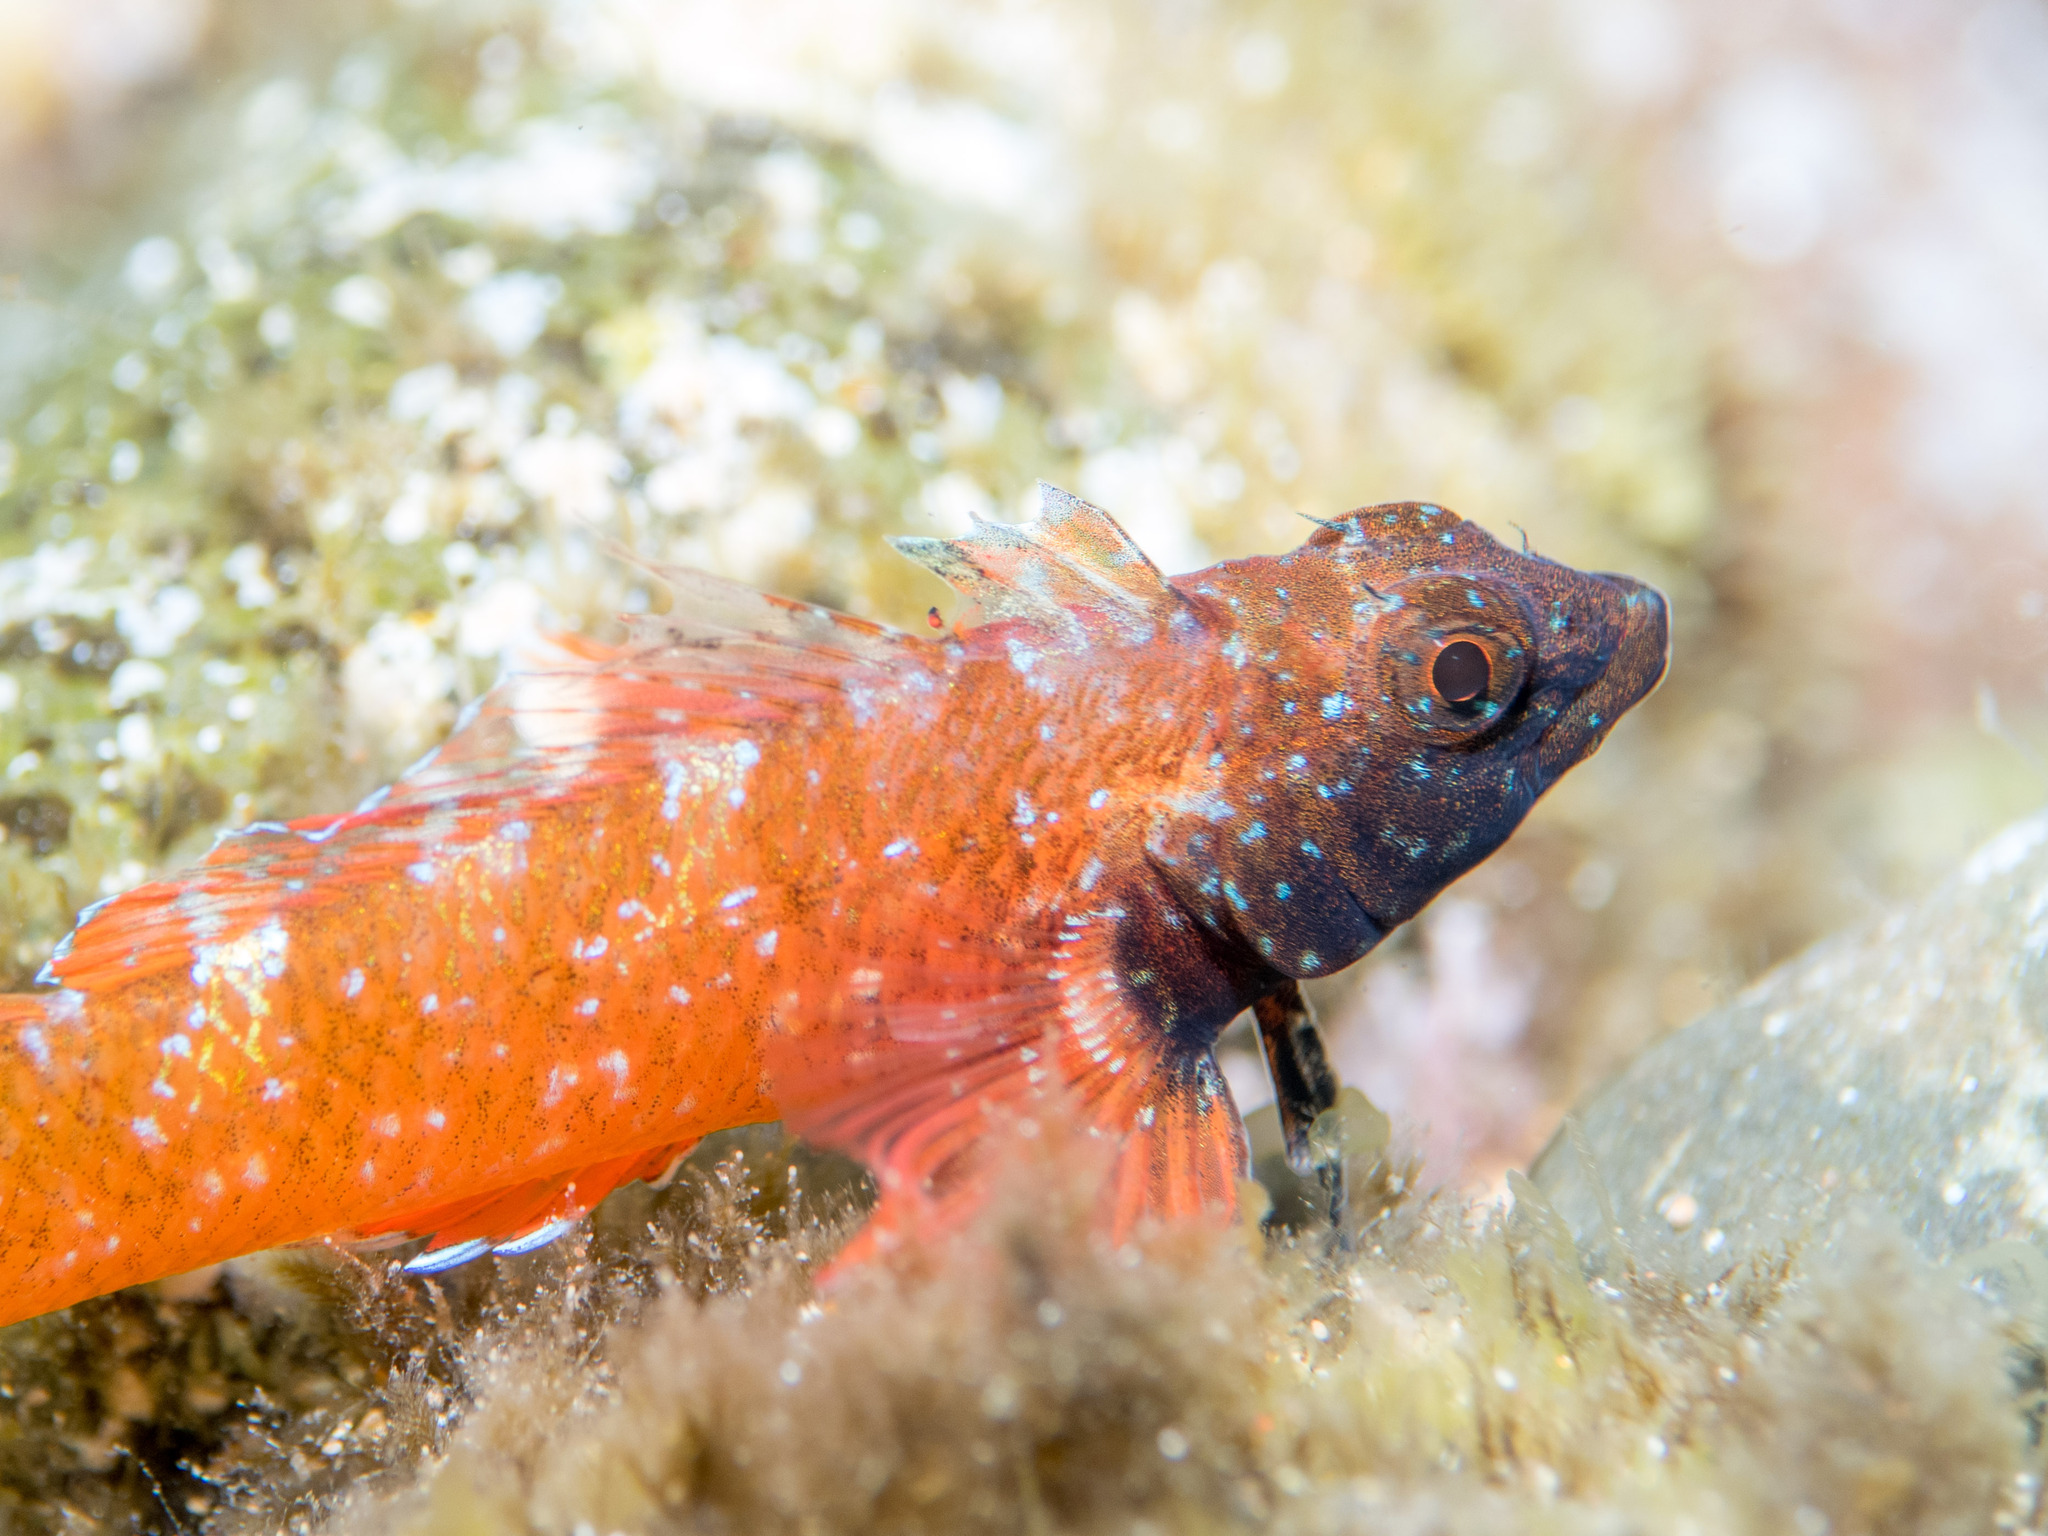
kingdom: Animalia
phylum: Chordata
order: Perciformes
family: Tripterygiidae
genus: Tripterygion
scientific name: Tripterygion tripteronotum
